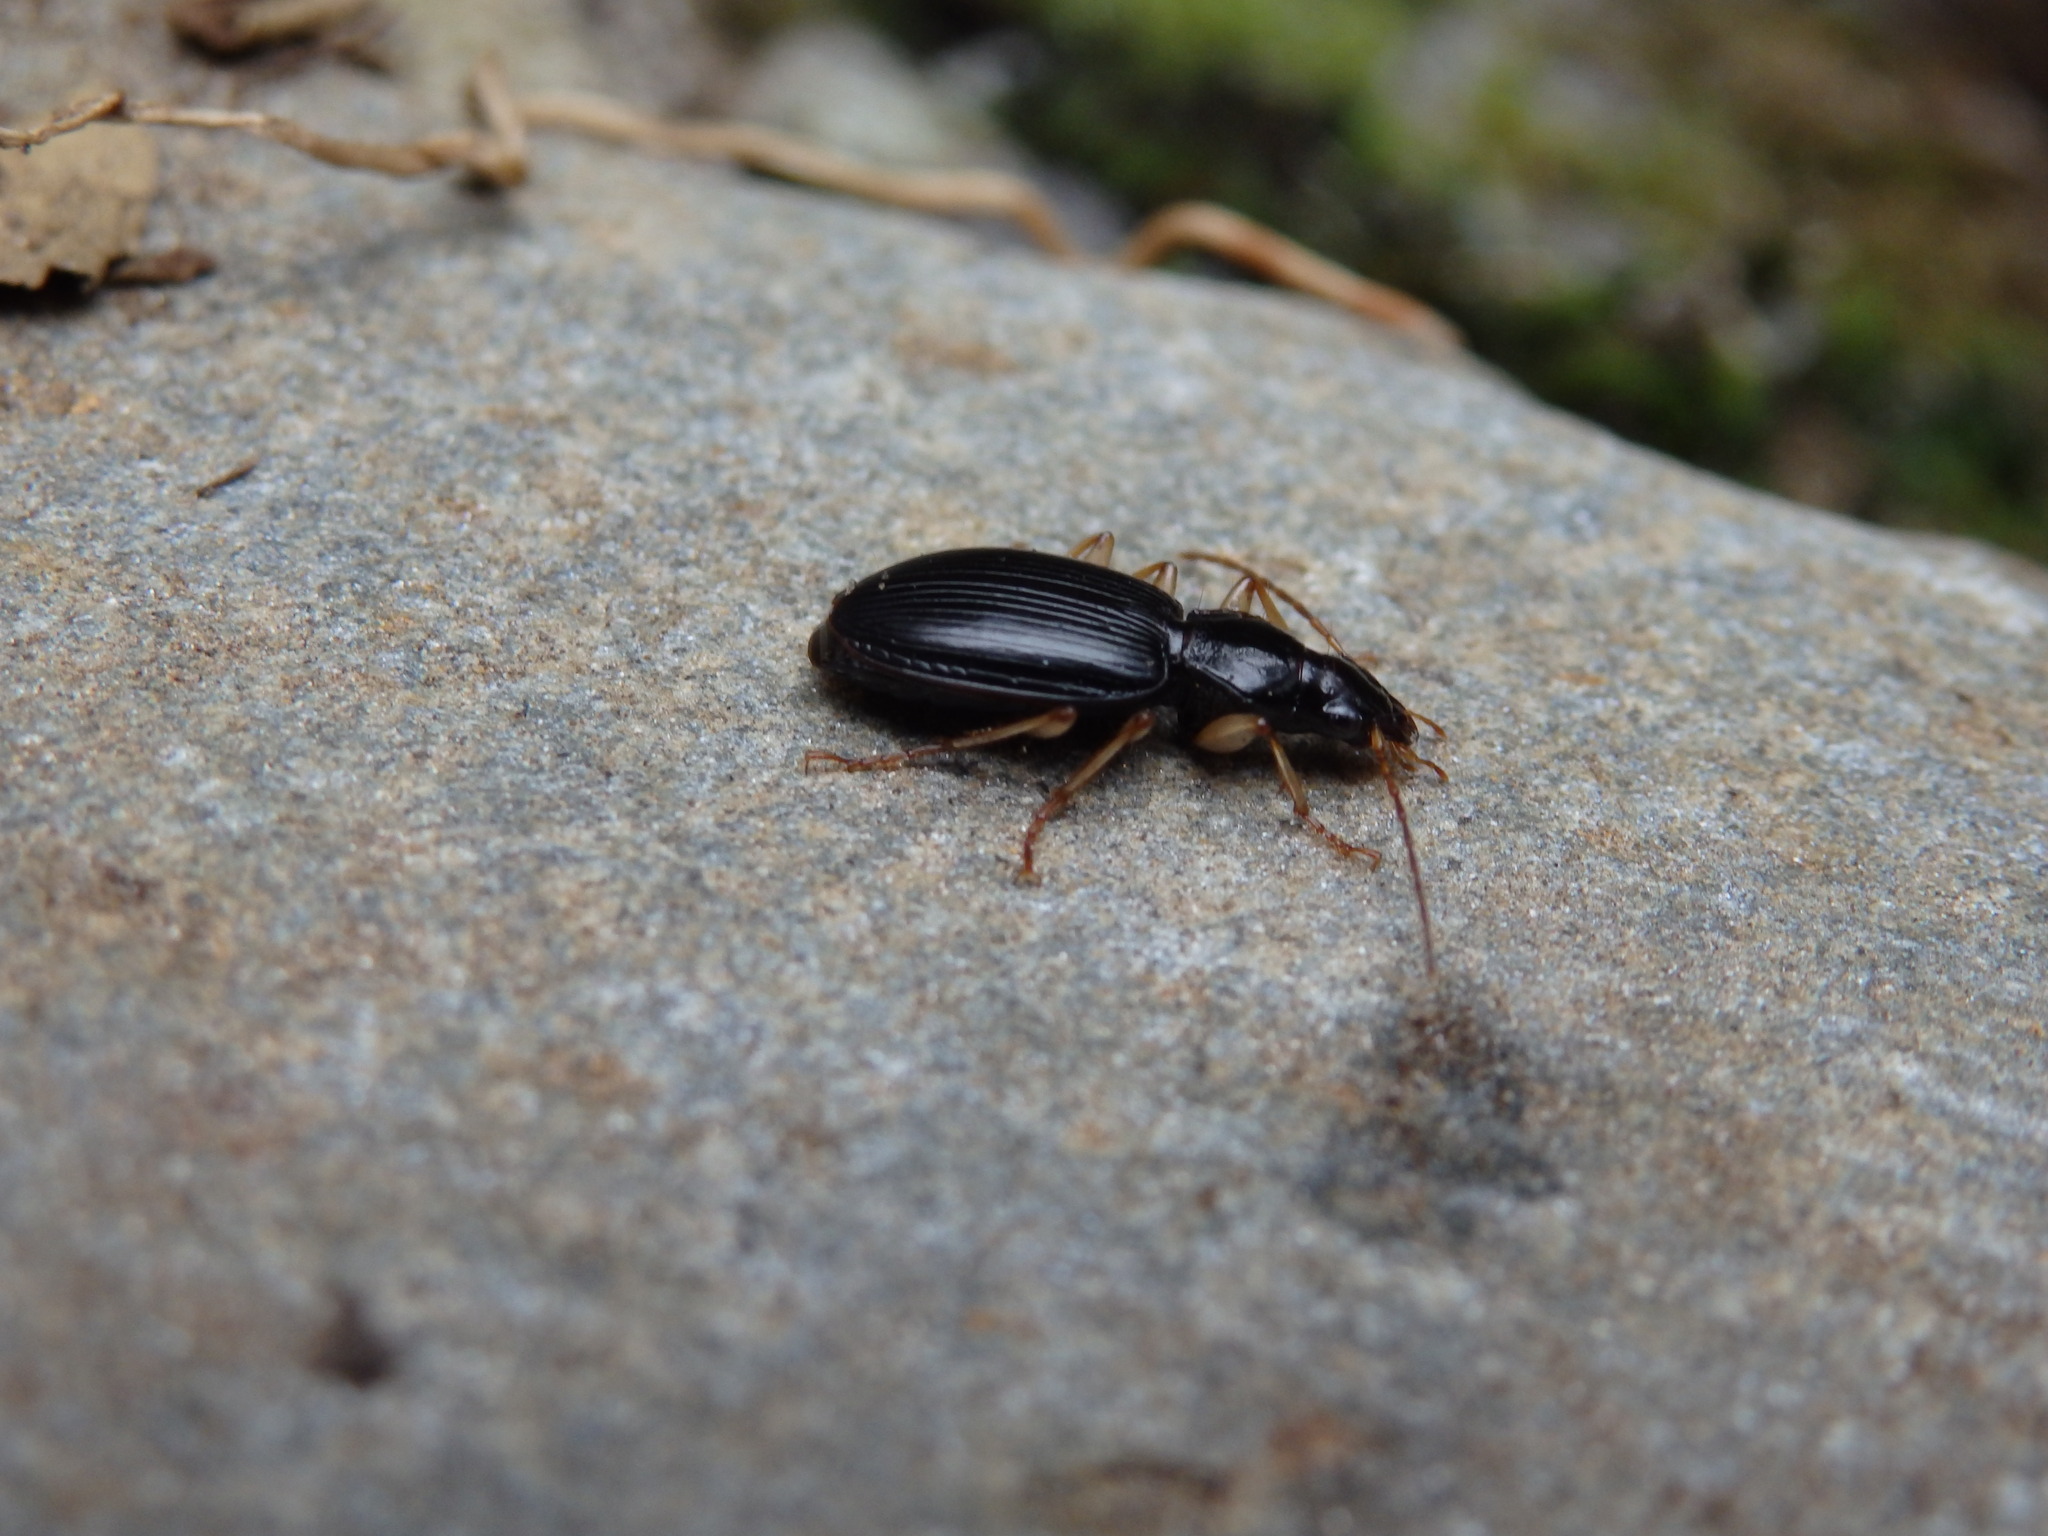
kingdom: Animalia
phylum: Arthropoda
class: Insecta
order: Coleoptera
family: Carabidae
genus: Paranchus
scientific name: Paranchus albipes
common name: White-legged harp ground beetle
